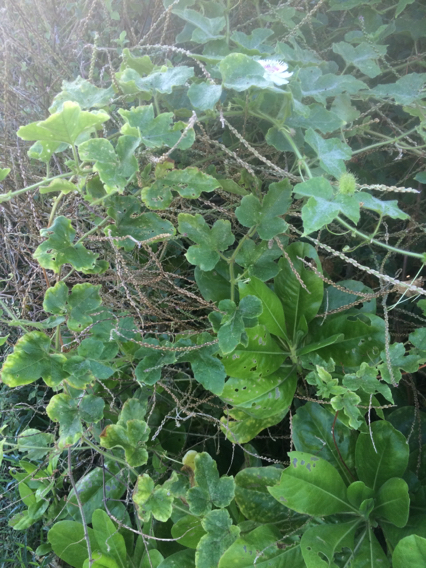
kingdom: Plantae
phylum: Tracheophyta
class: Magnoliopsida
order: Malpighiales
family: Passifloraceae
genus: Passiflora
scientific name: Passiflora foetida
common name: Fetid passionflower
